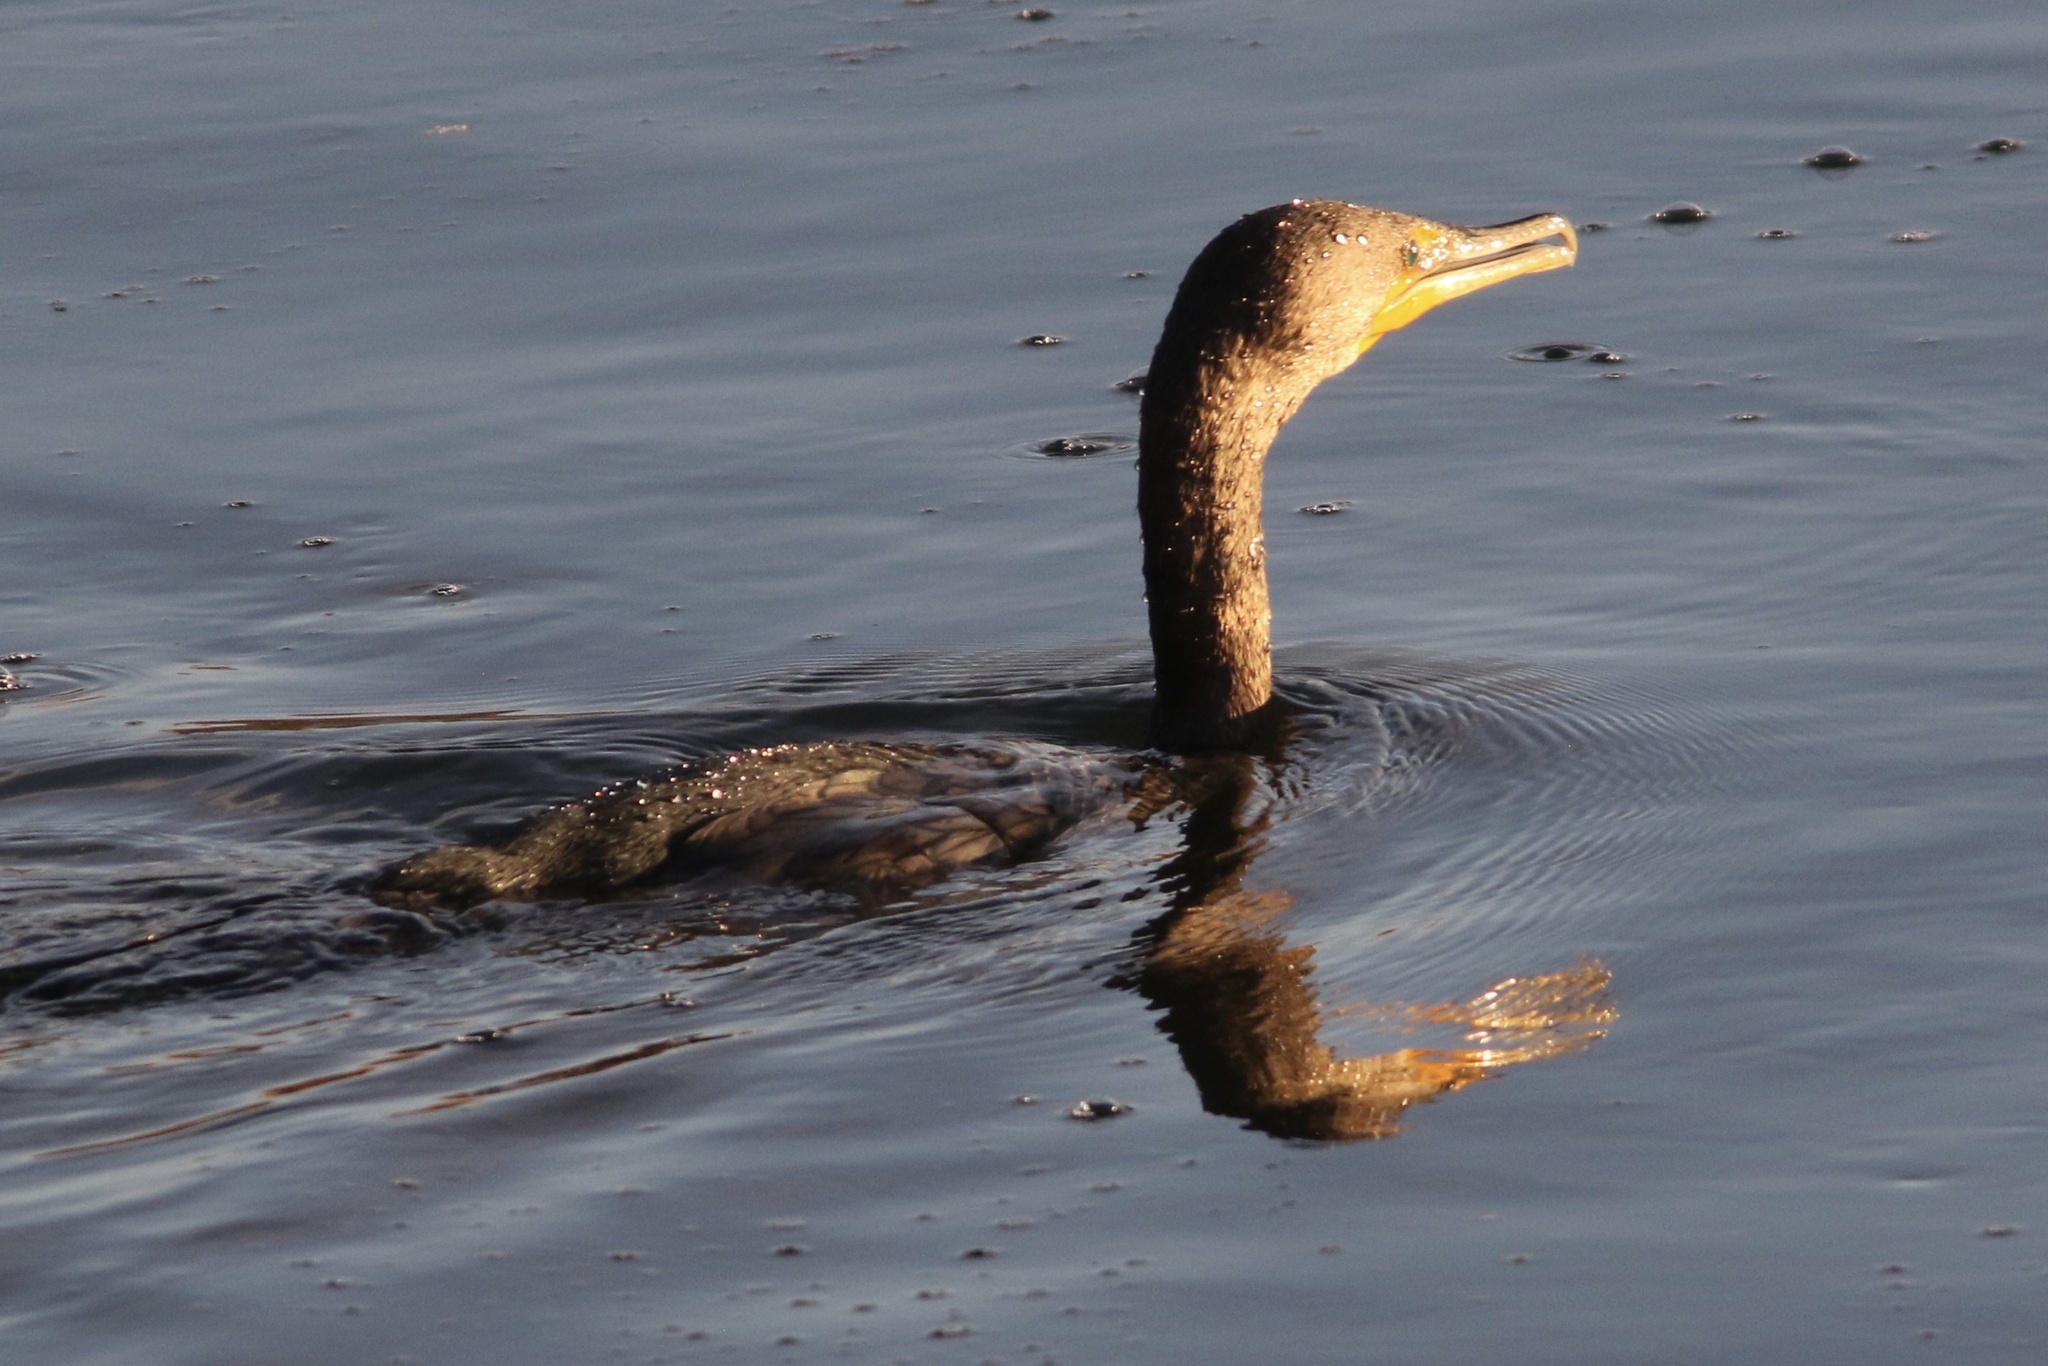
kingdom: Animalia
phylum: Chordata
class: Aves
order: Suliformes
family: Phalacrocoracidae
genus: Phalacrocorax
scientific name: Phalacrocorax auritus
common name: Double-crested cormorant
